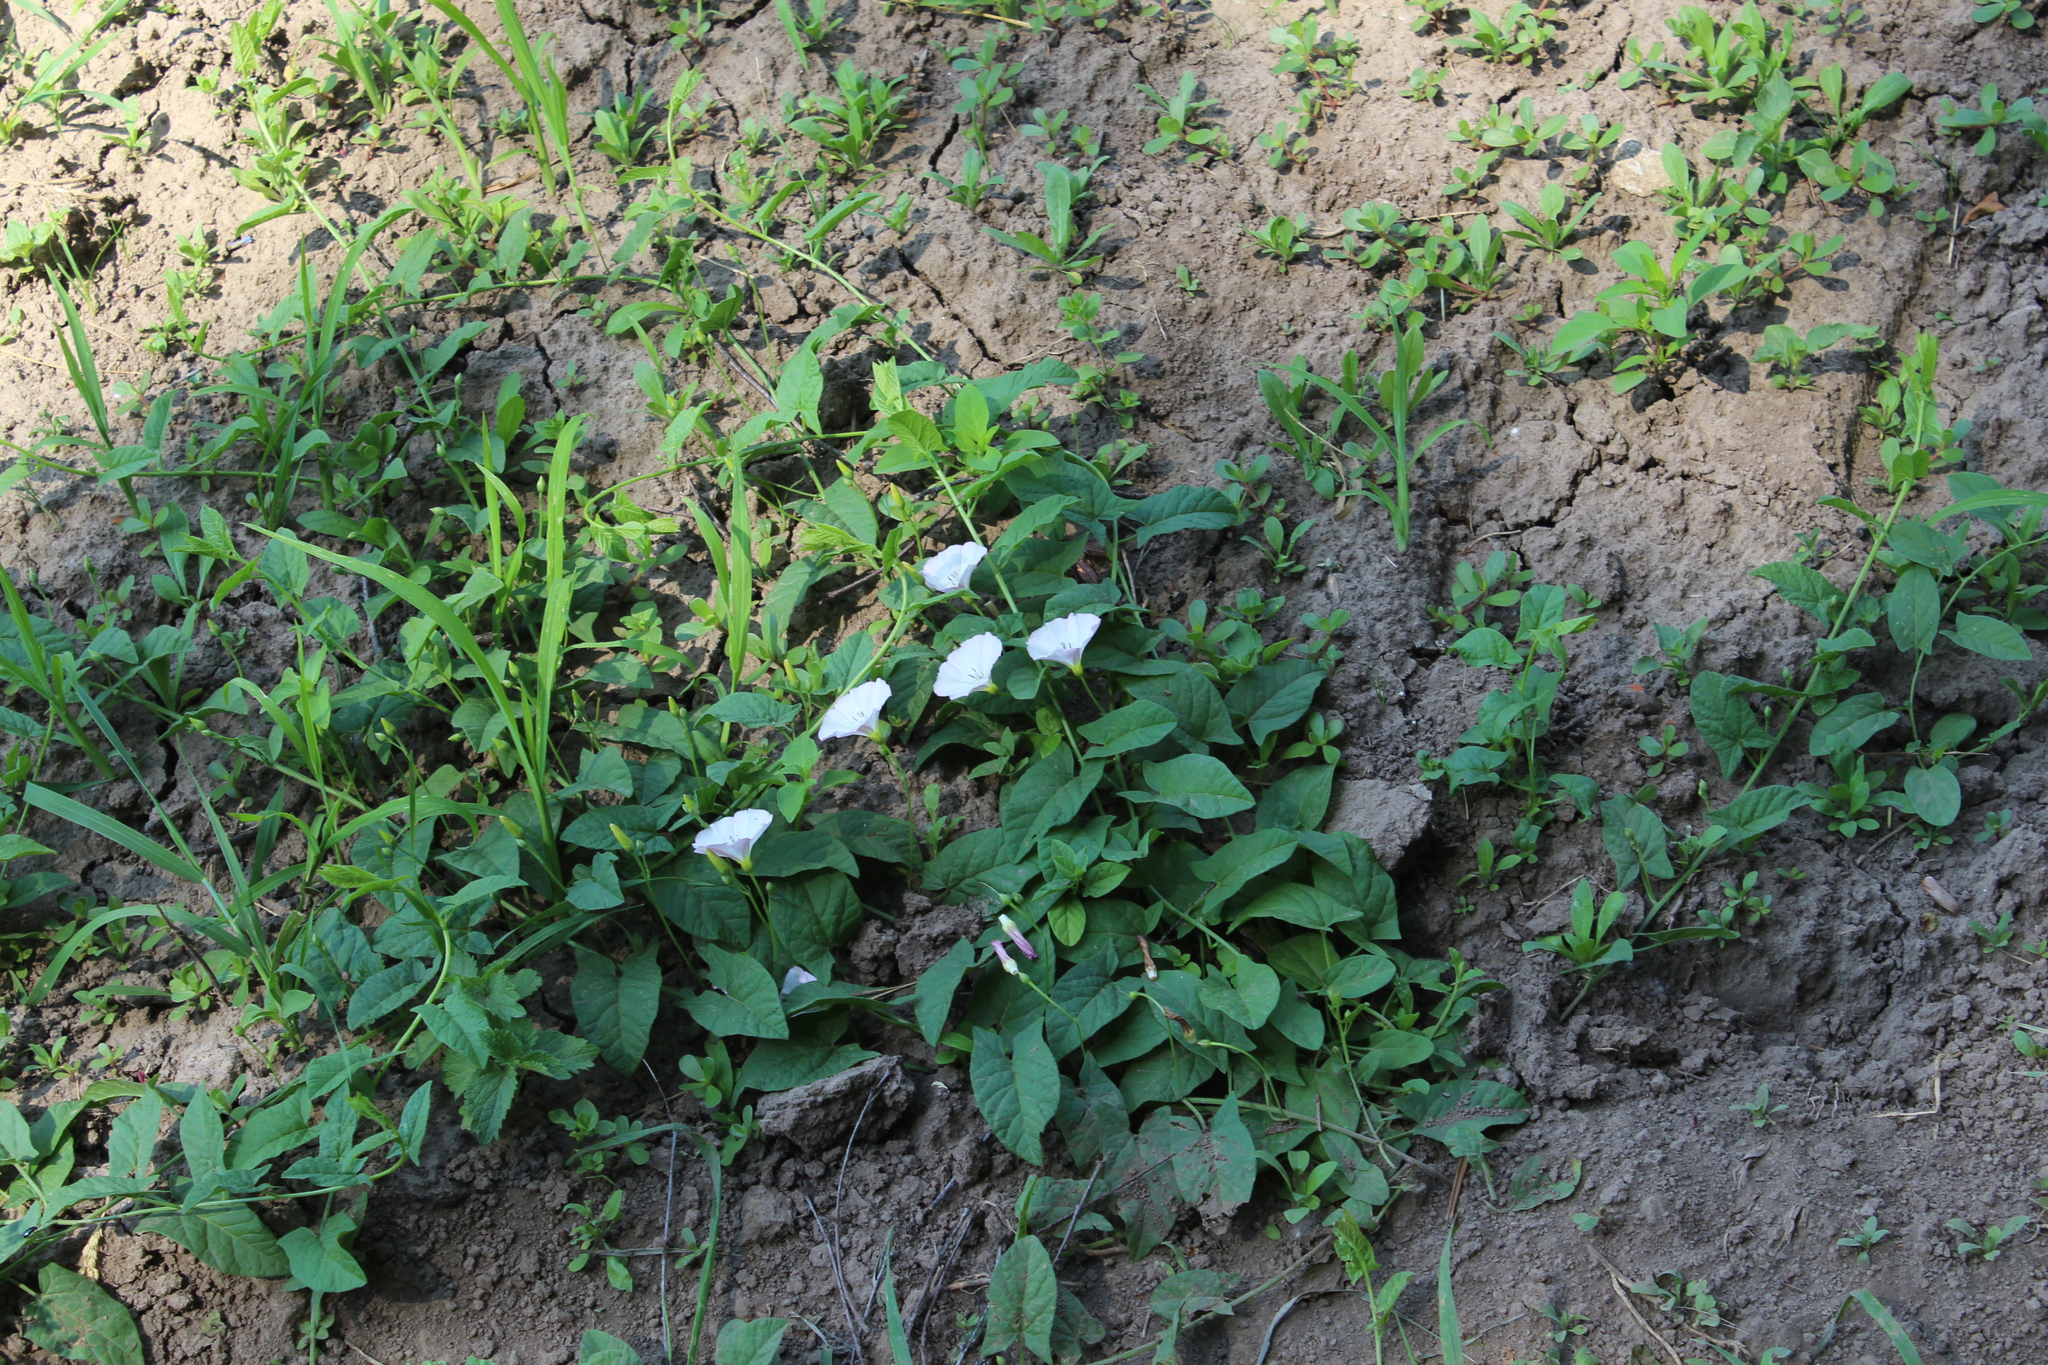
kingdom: Plantae
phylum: Tracheophyta
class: Magnoliopsida
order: Solanales
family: Convolvulaceae
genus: Convolvulus
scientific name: Convolvulus arvensis
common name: Field bindweed
